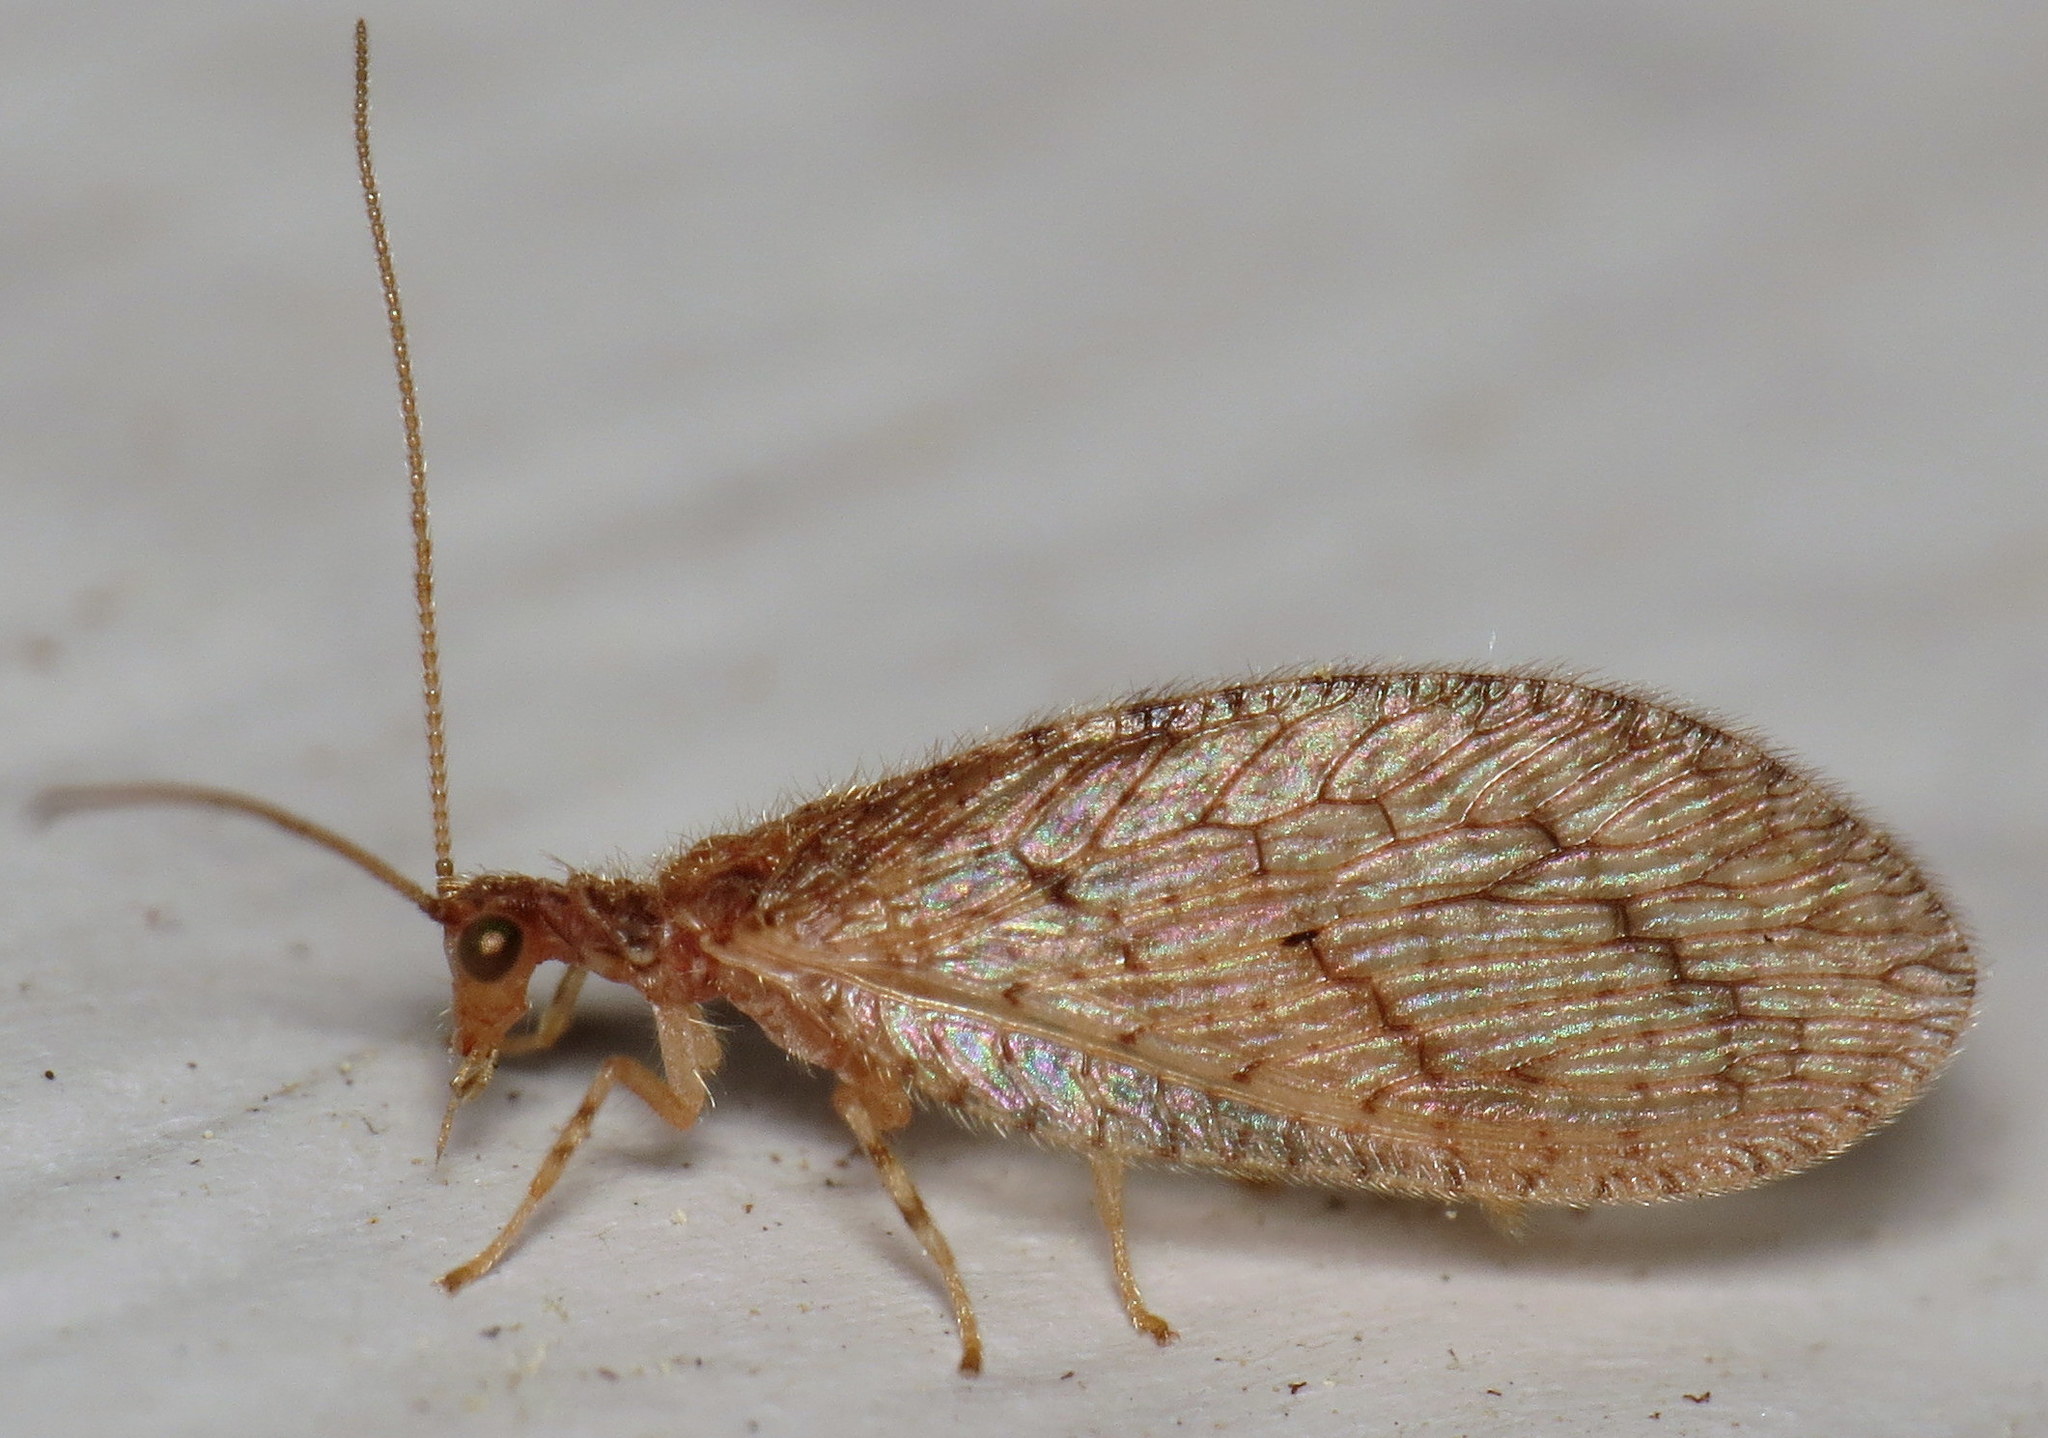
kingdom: Animalia
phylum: Arthropoda
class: Insecta
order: Neuroptera
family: Hemerobiidae
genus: Micromus
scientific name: Micromus posticus
